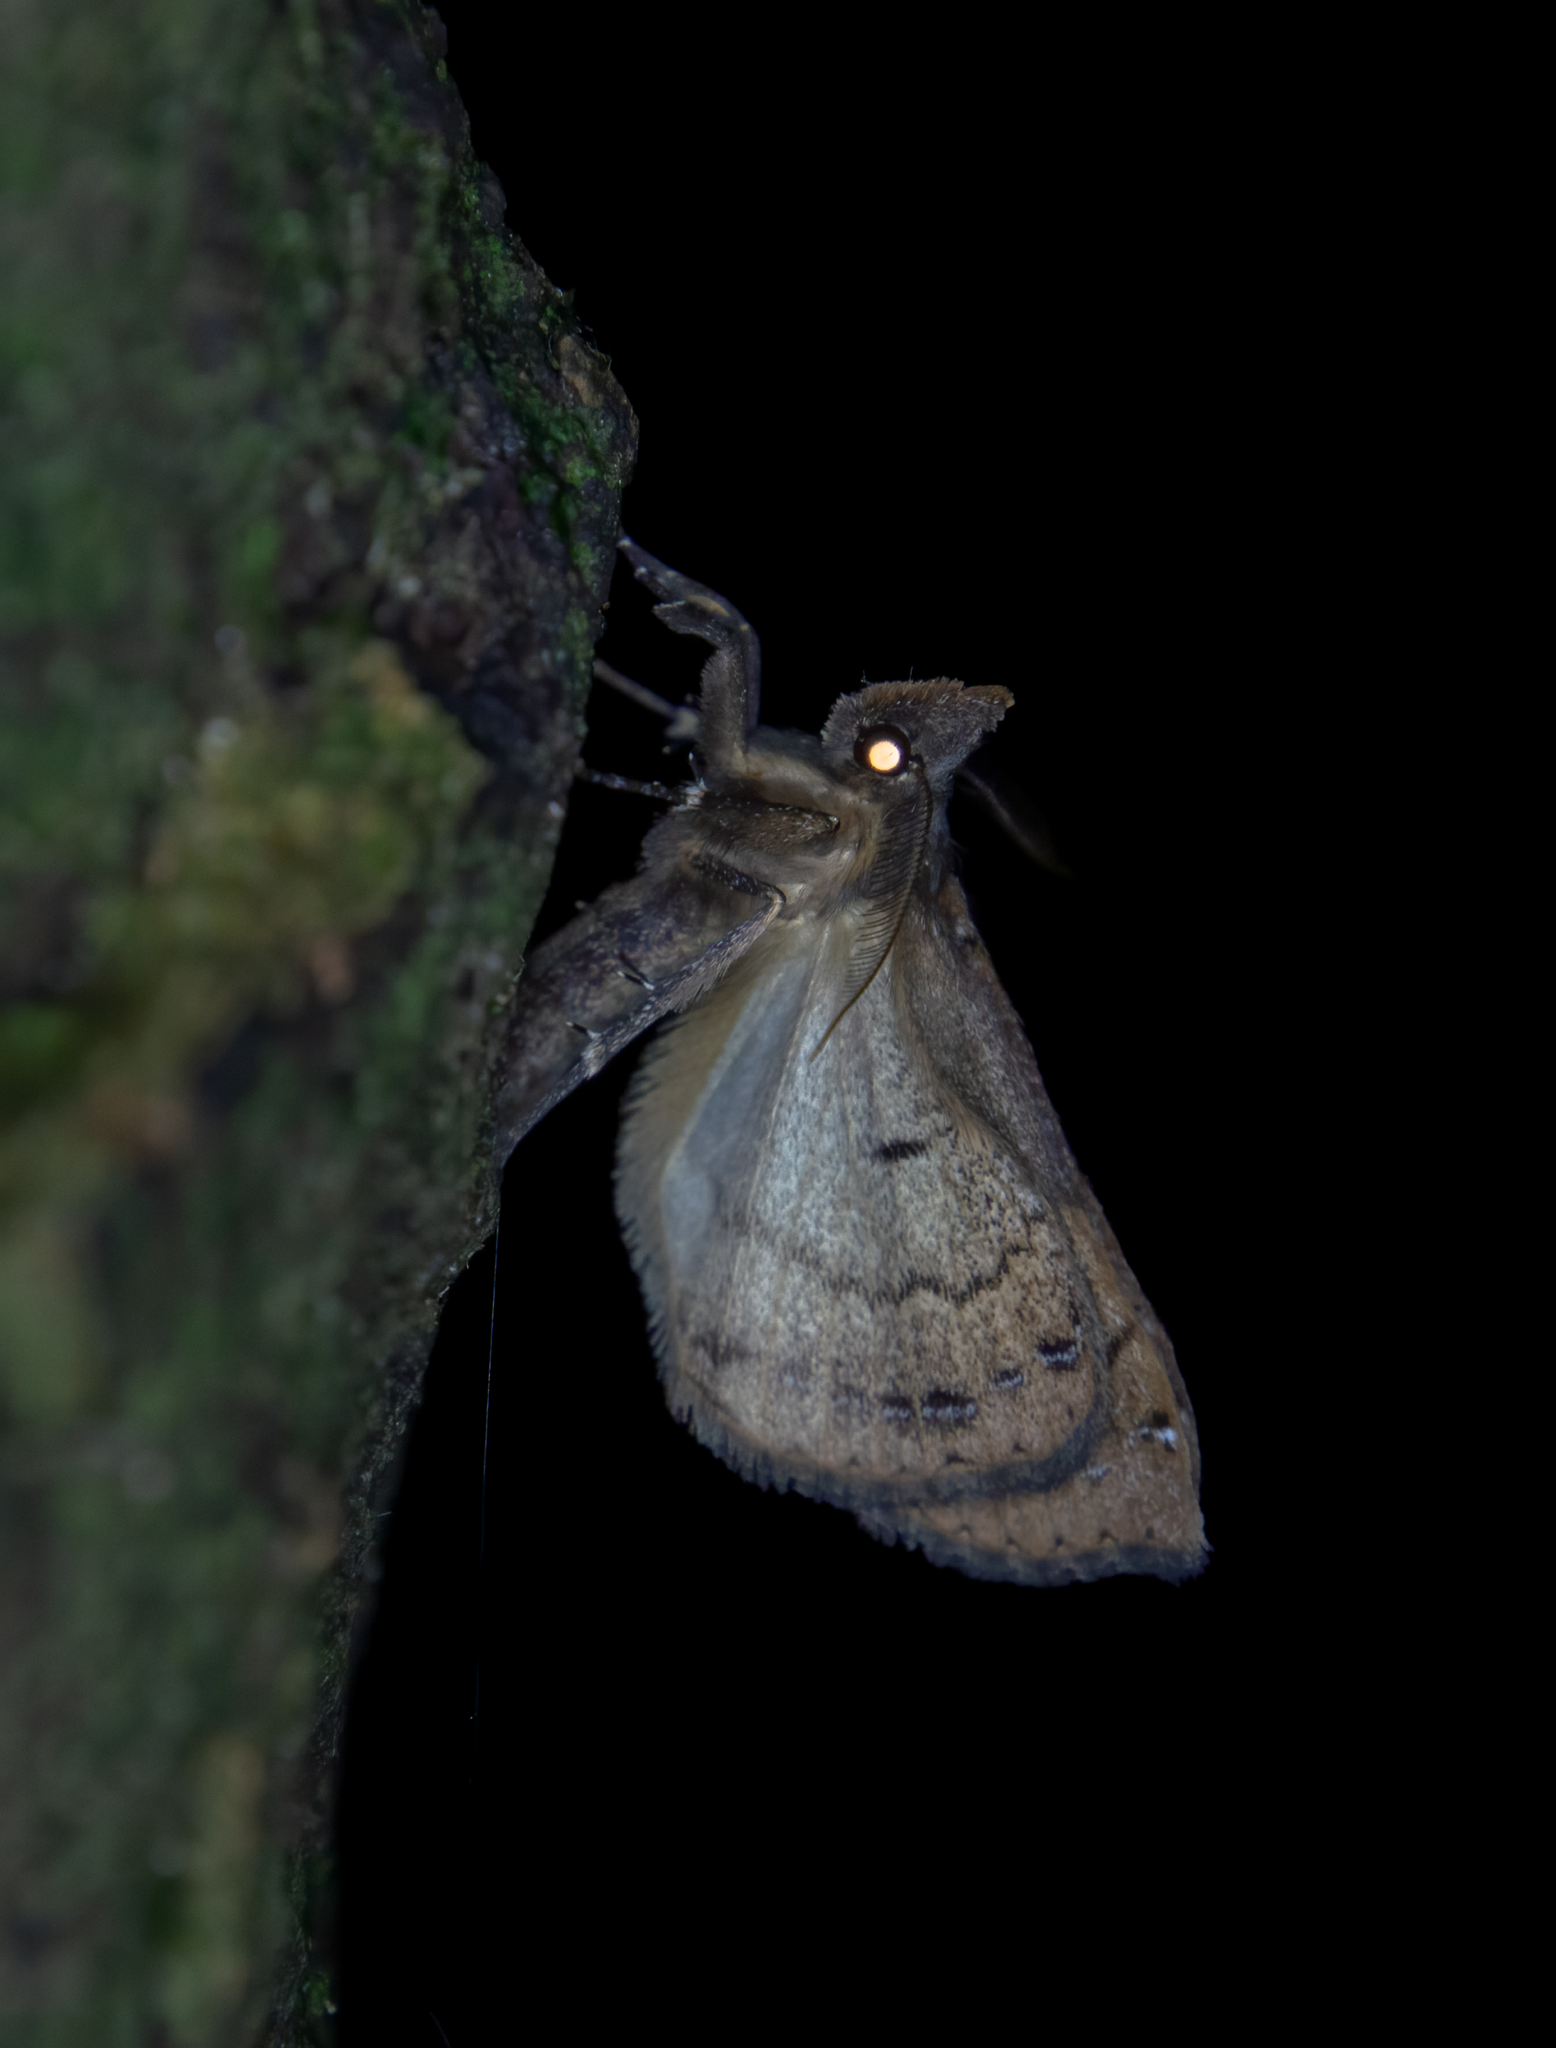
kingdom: Animalia
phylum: Arthropoda
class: Insecta
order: Lepidoptera
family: Erebidae
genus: Rhapsa
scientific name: Rhapsa scotosialis
